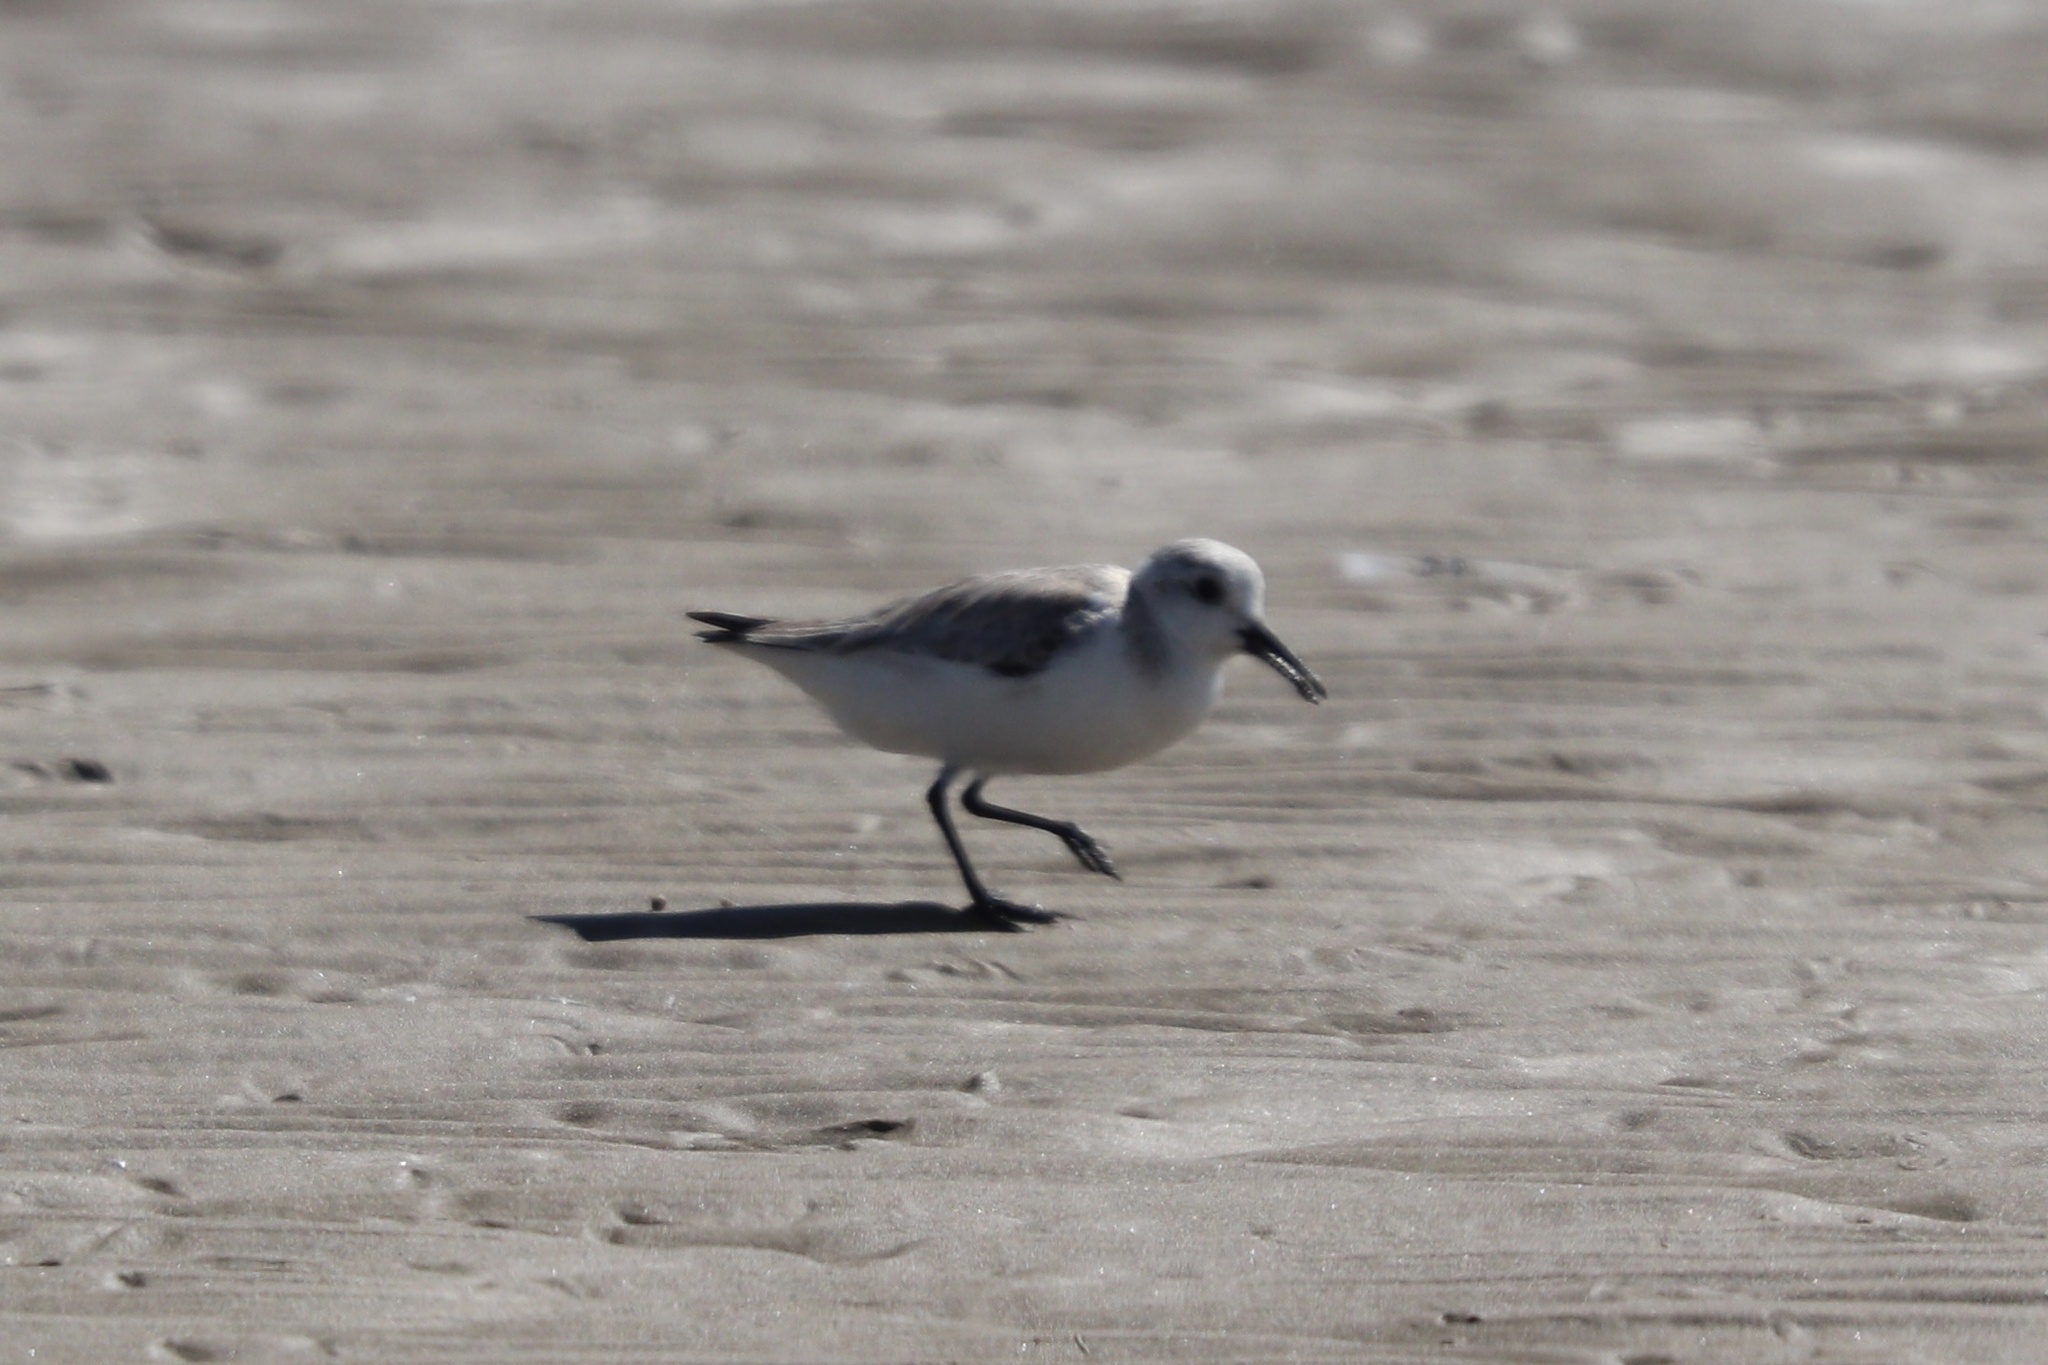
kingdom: Animalia
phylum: Chordata
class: Aves
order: Charadriiformes
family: Scolopacidae
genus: Calidris
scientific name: Calidris alba
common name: Sanderling
